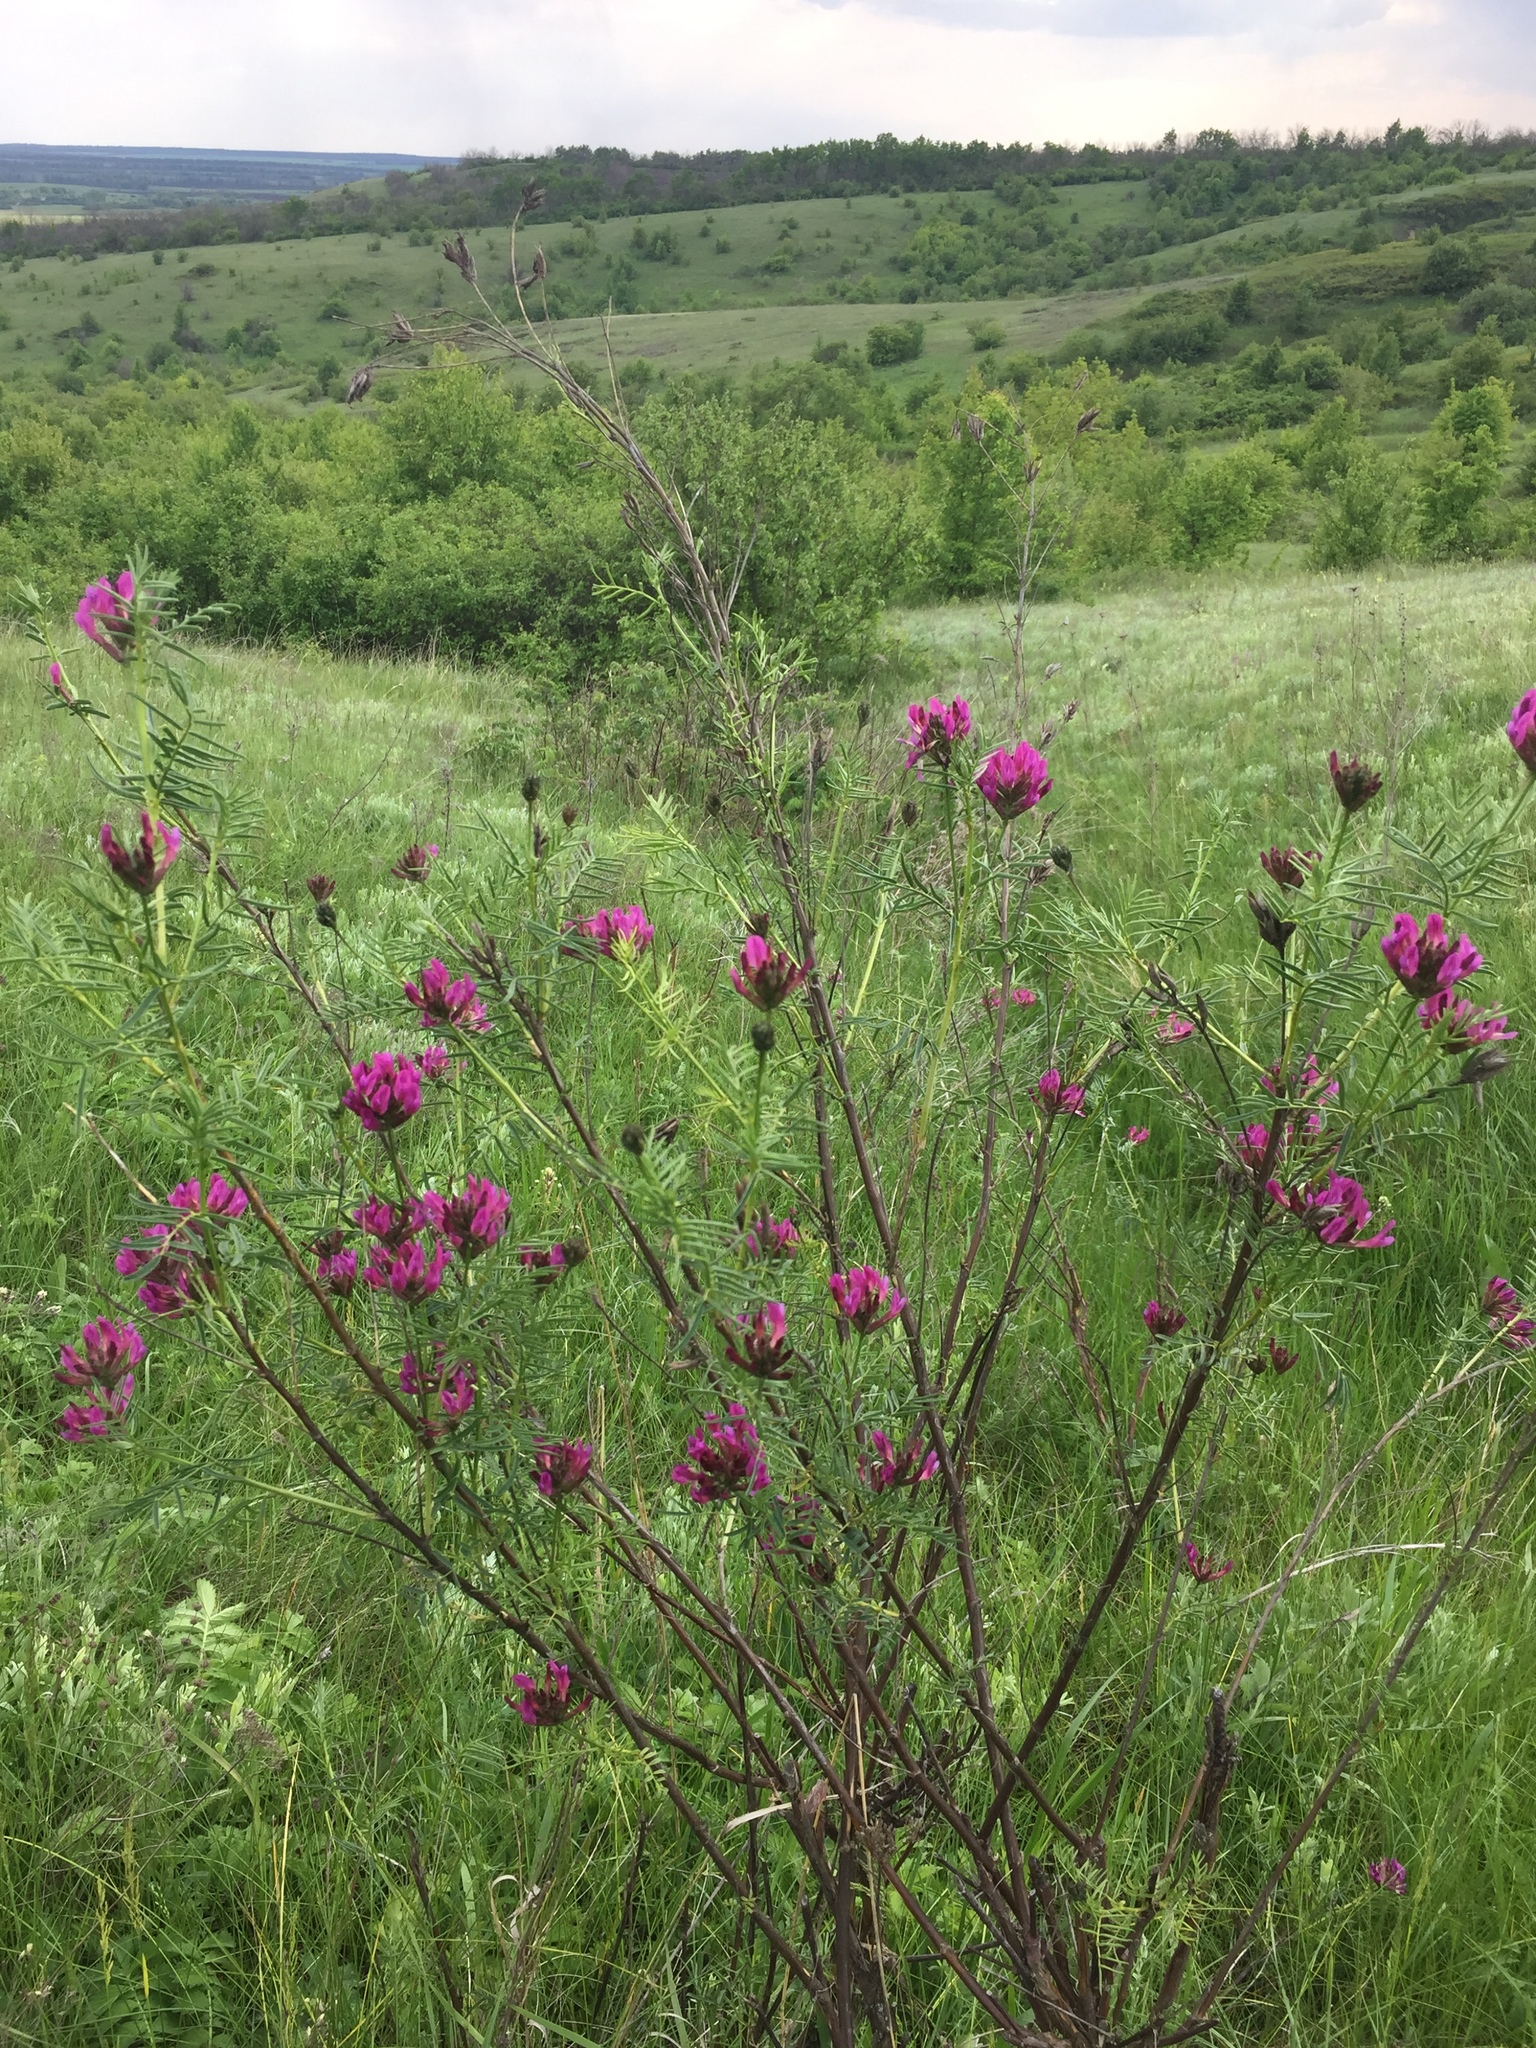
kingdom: Plantae
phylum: Tracheophyta
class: Magnoliopsida
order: Fabales
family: Fabaceae
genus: Astragalus
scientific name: Astragalus cornutus
